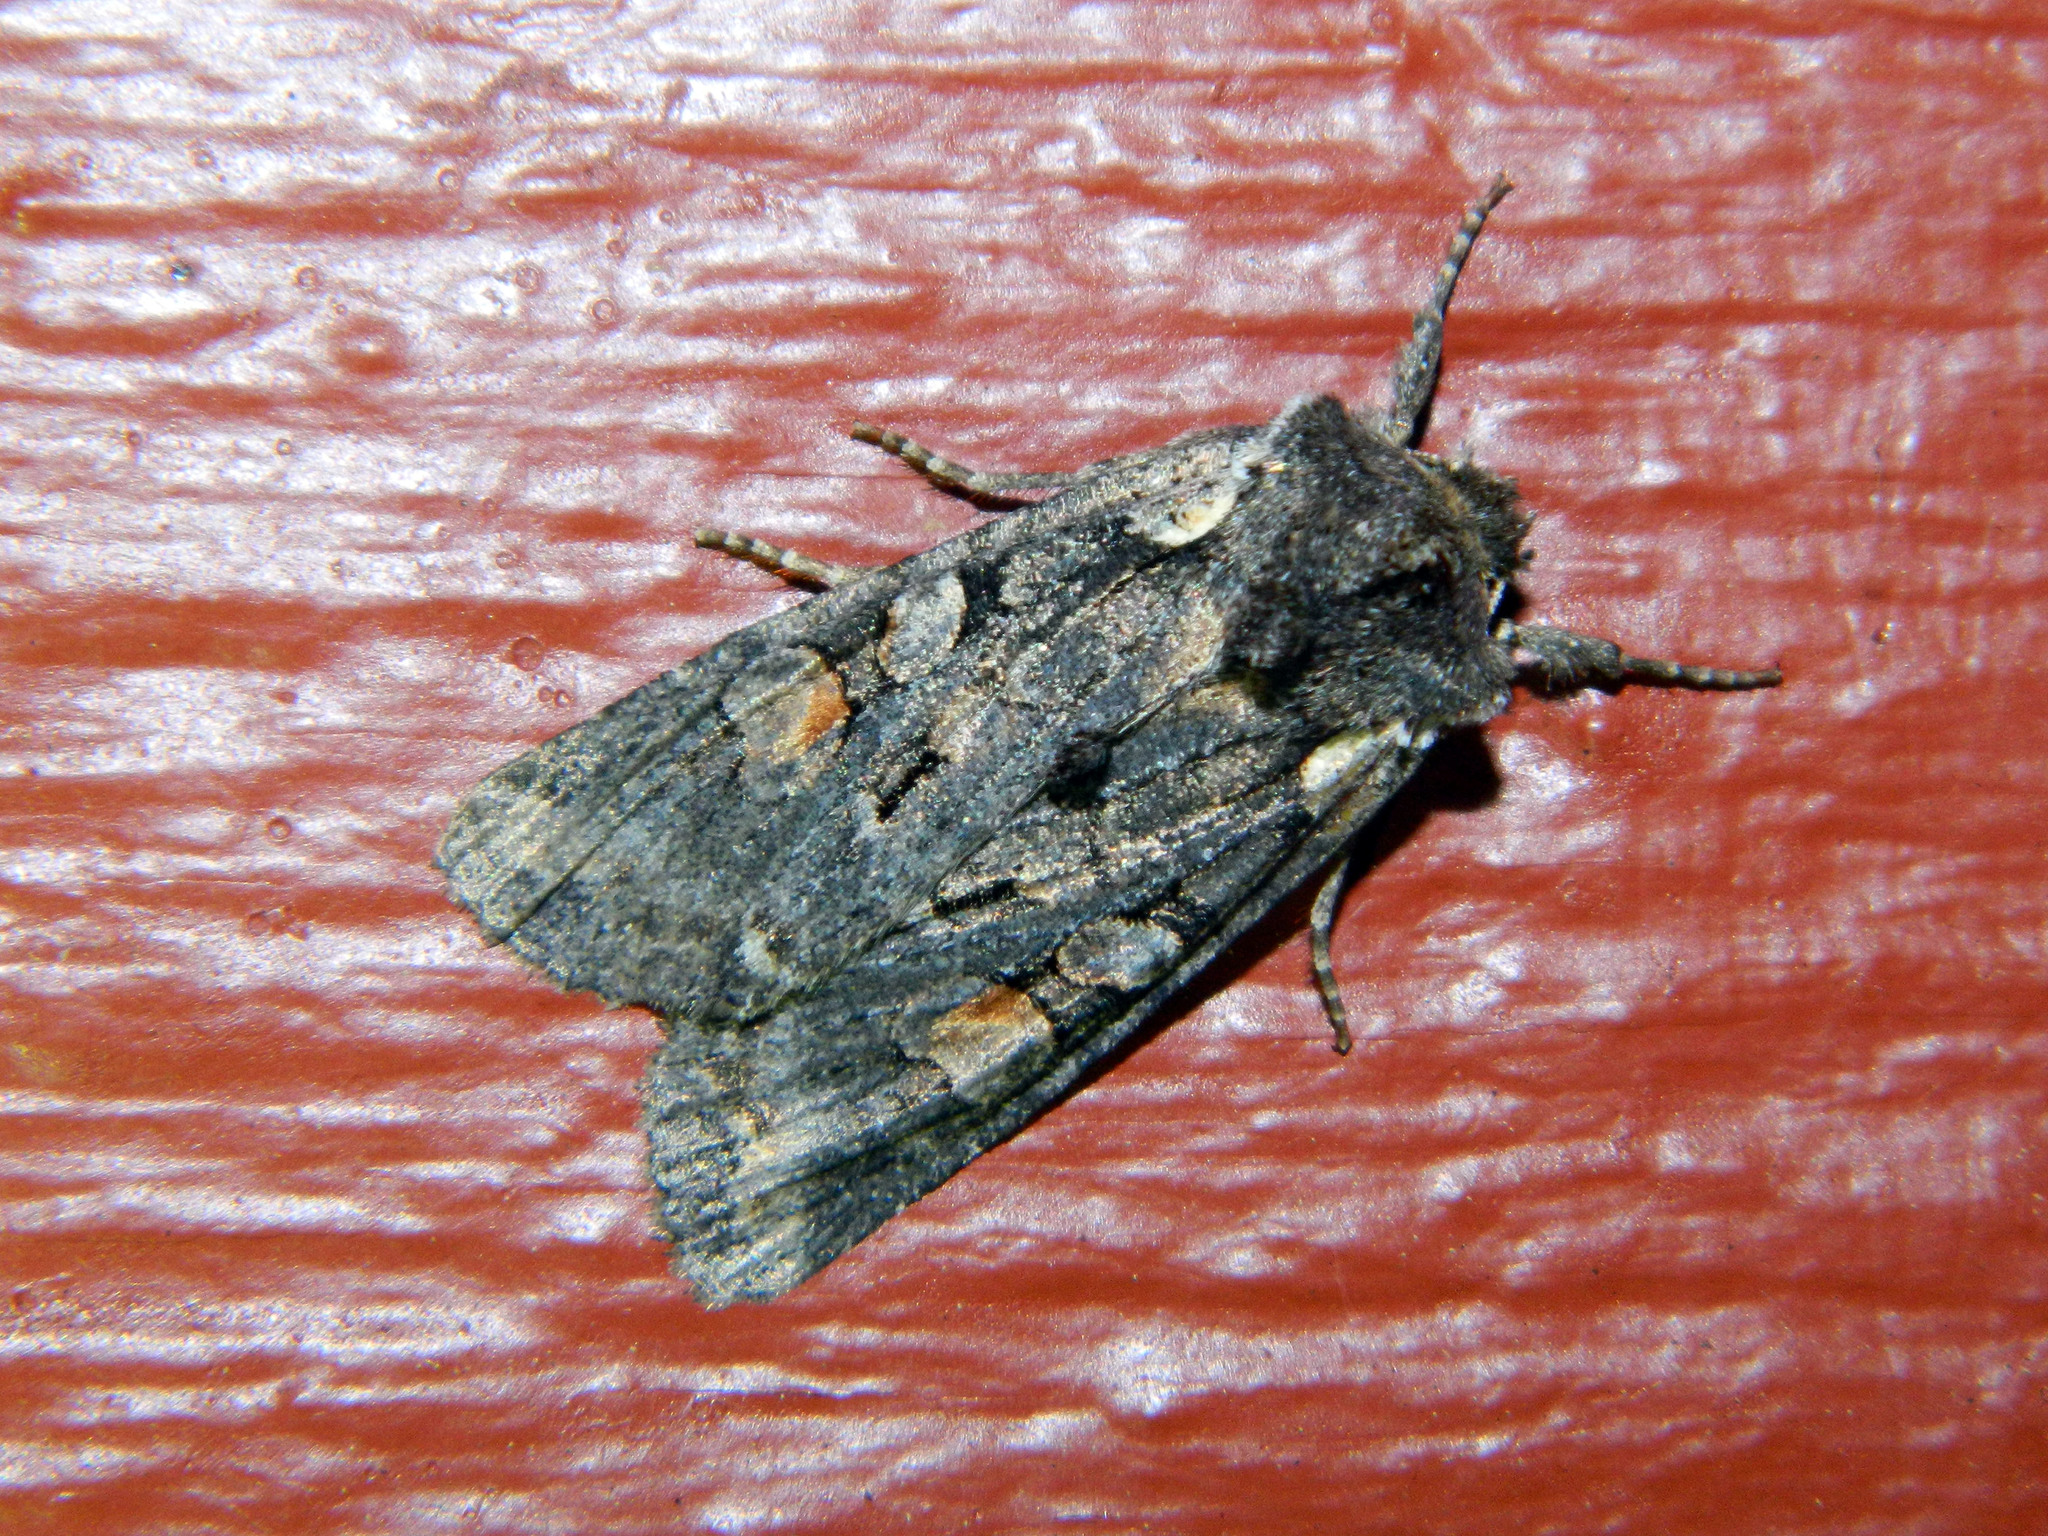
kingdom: Animalia
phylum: Arthropoda
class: Insecta
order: Lepidoptera
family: Noctuidae
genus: Lithophane
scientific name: Lithophane pexata
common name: Plush-naped pinion moth
